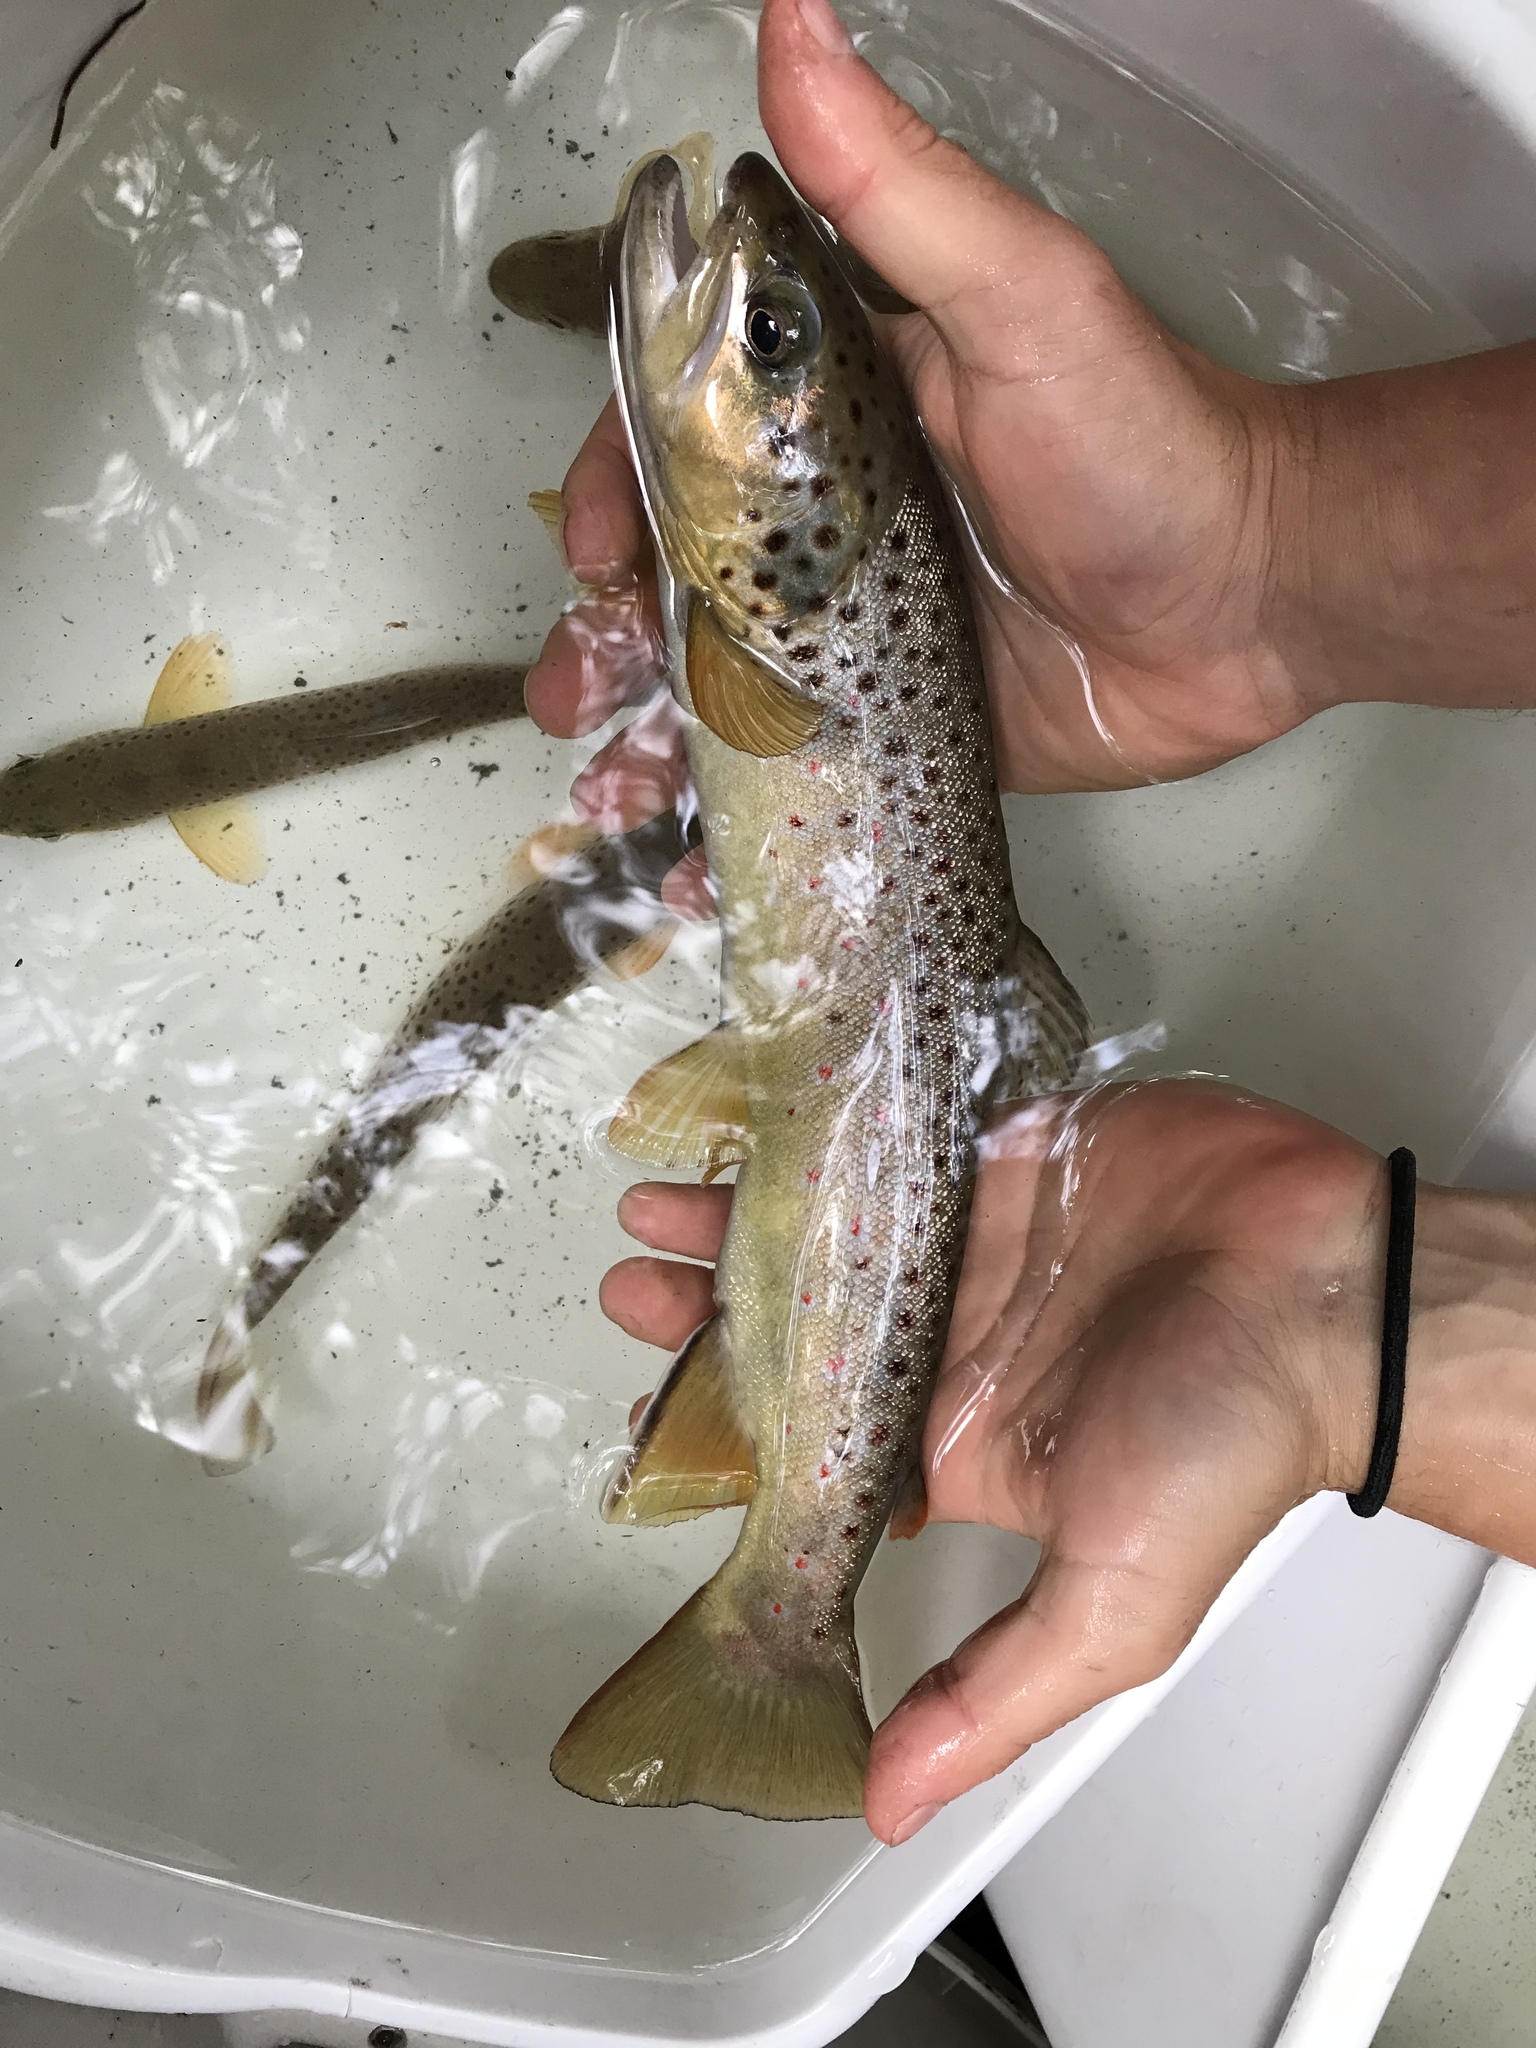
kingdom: Animalia
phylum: Chordata
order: Salmoniformes
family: Salmonidae
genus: Salmo
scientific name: Salmo trutta
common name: Brown trout
